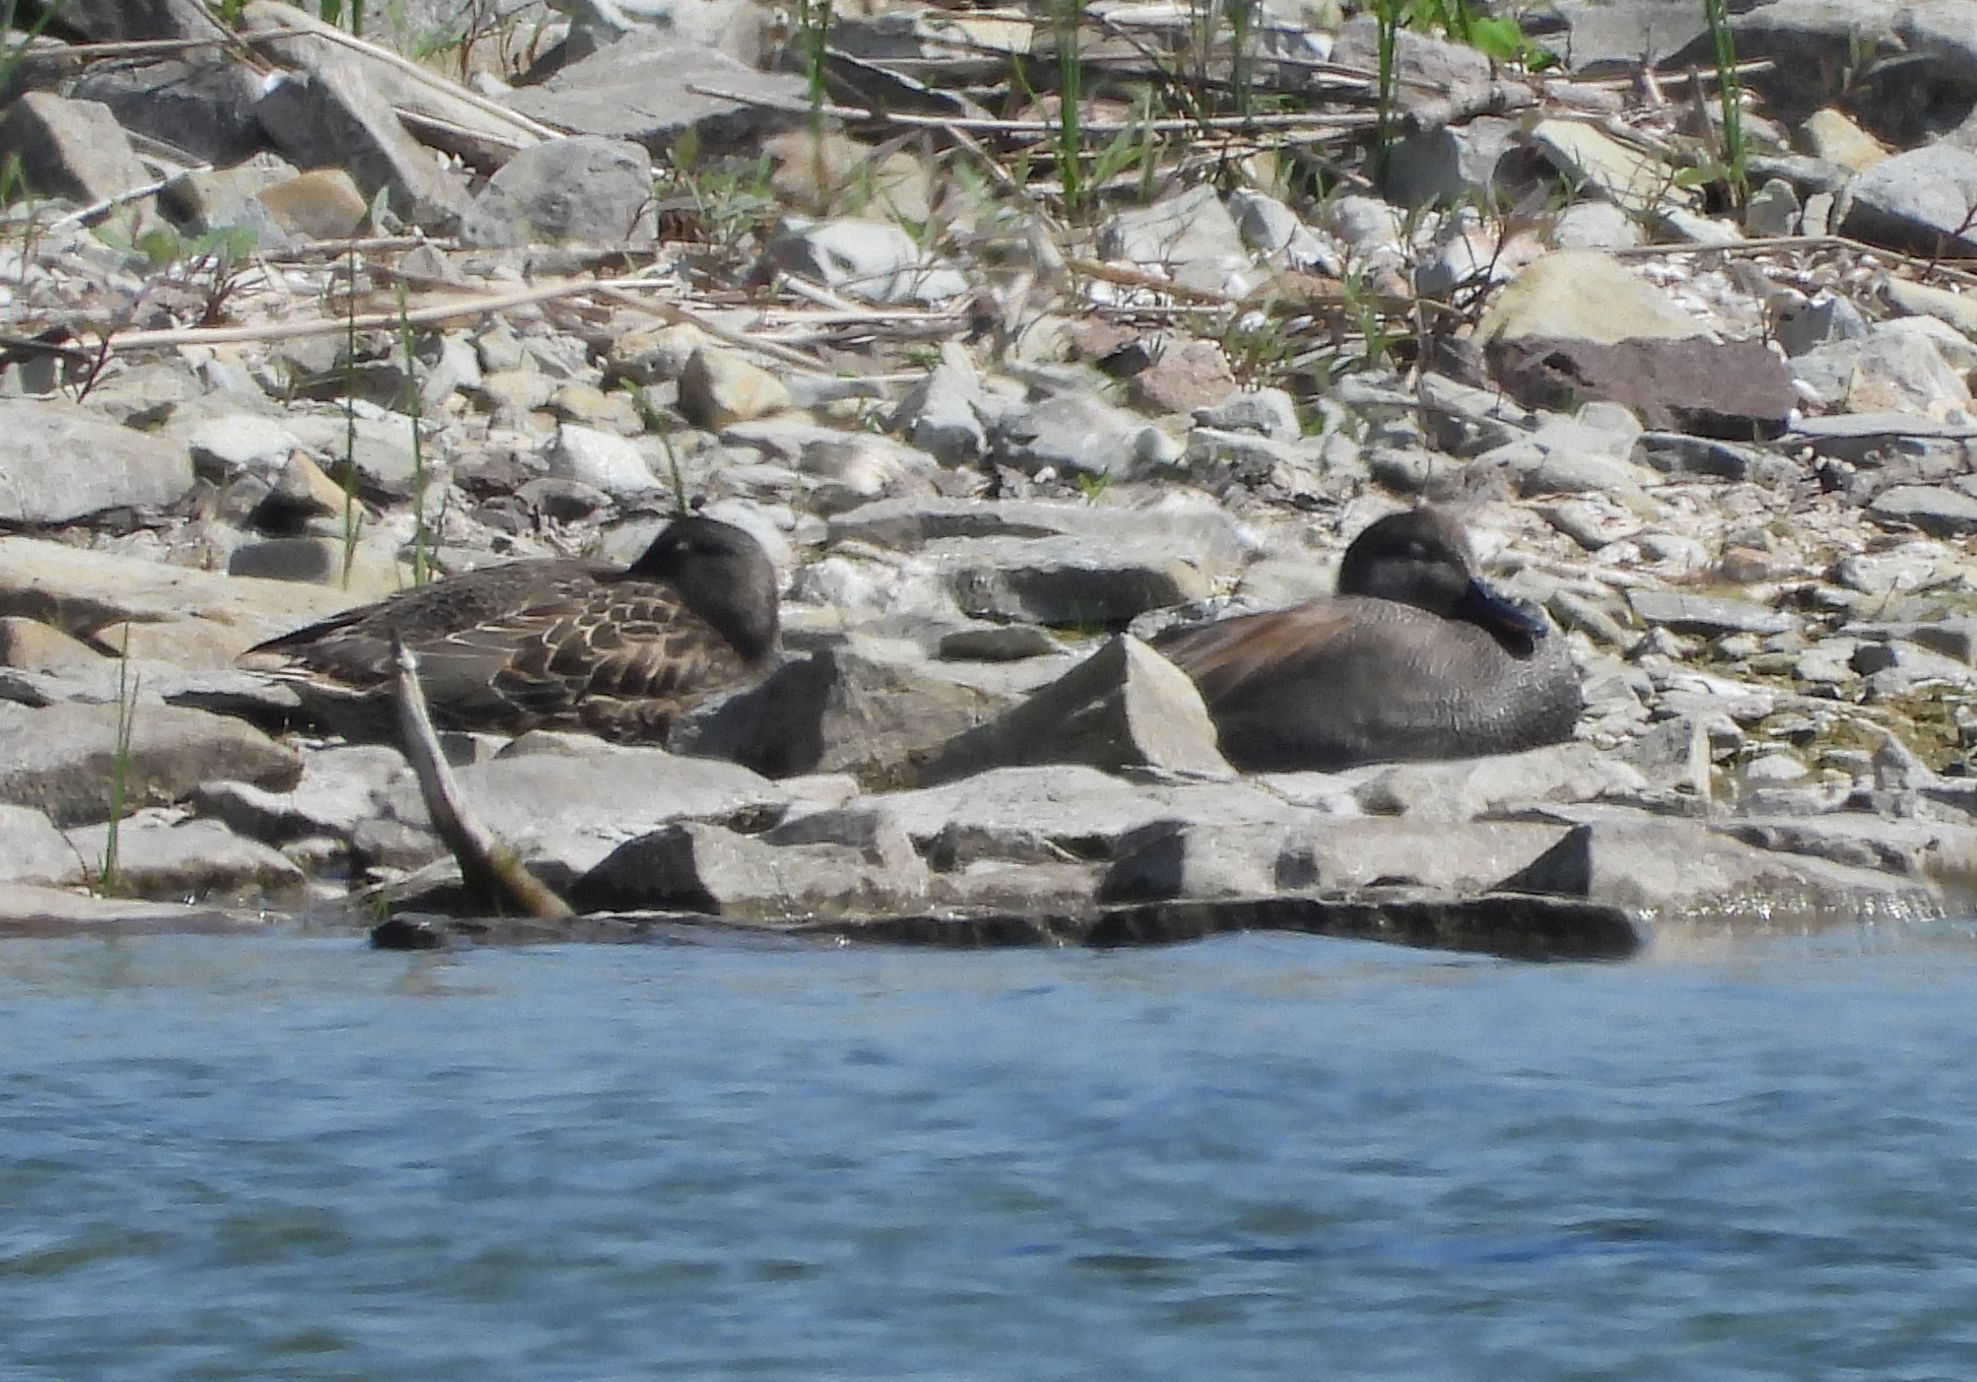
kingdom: Animalia
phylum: Chordata
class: Aves
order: Anseriformes
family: Anatidae
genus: Mareca
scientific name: Mareca strepera
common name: Gadwall
